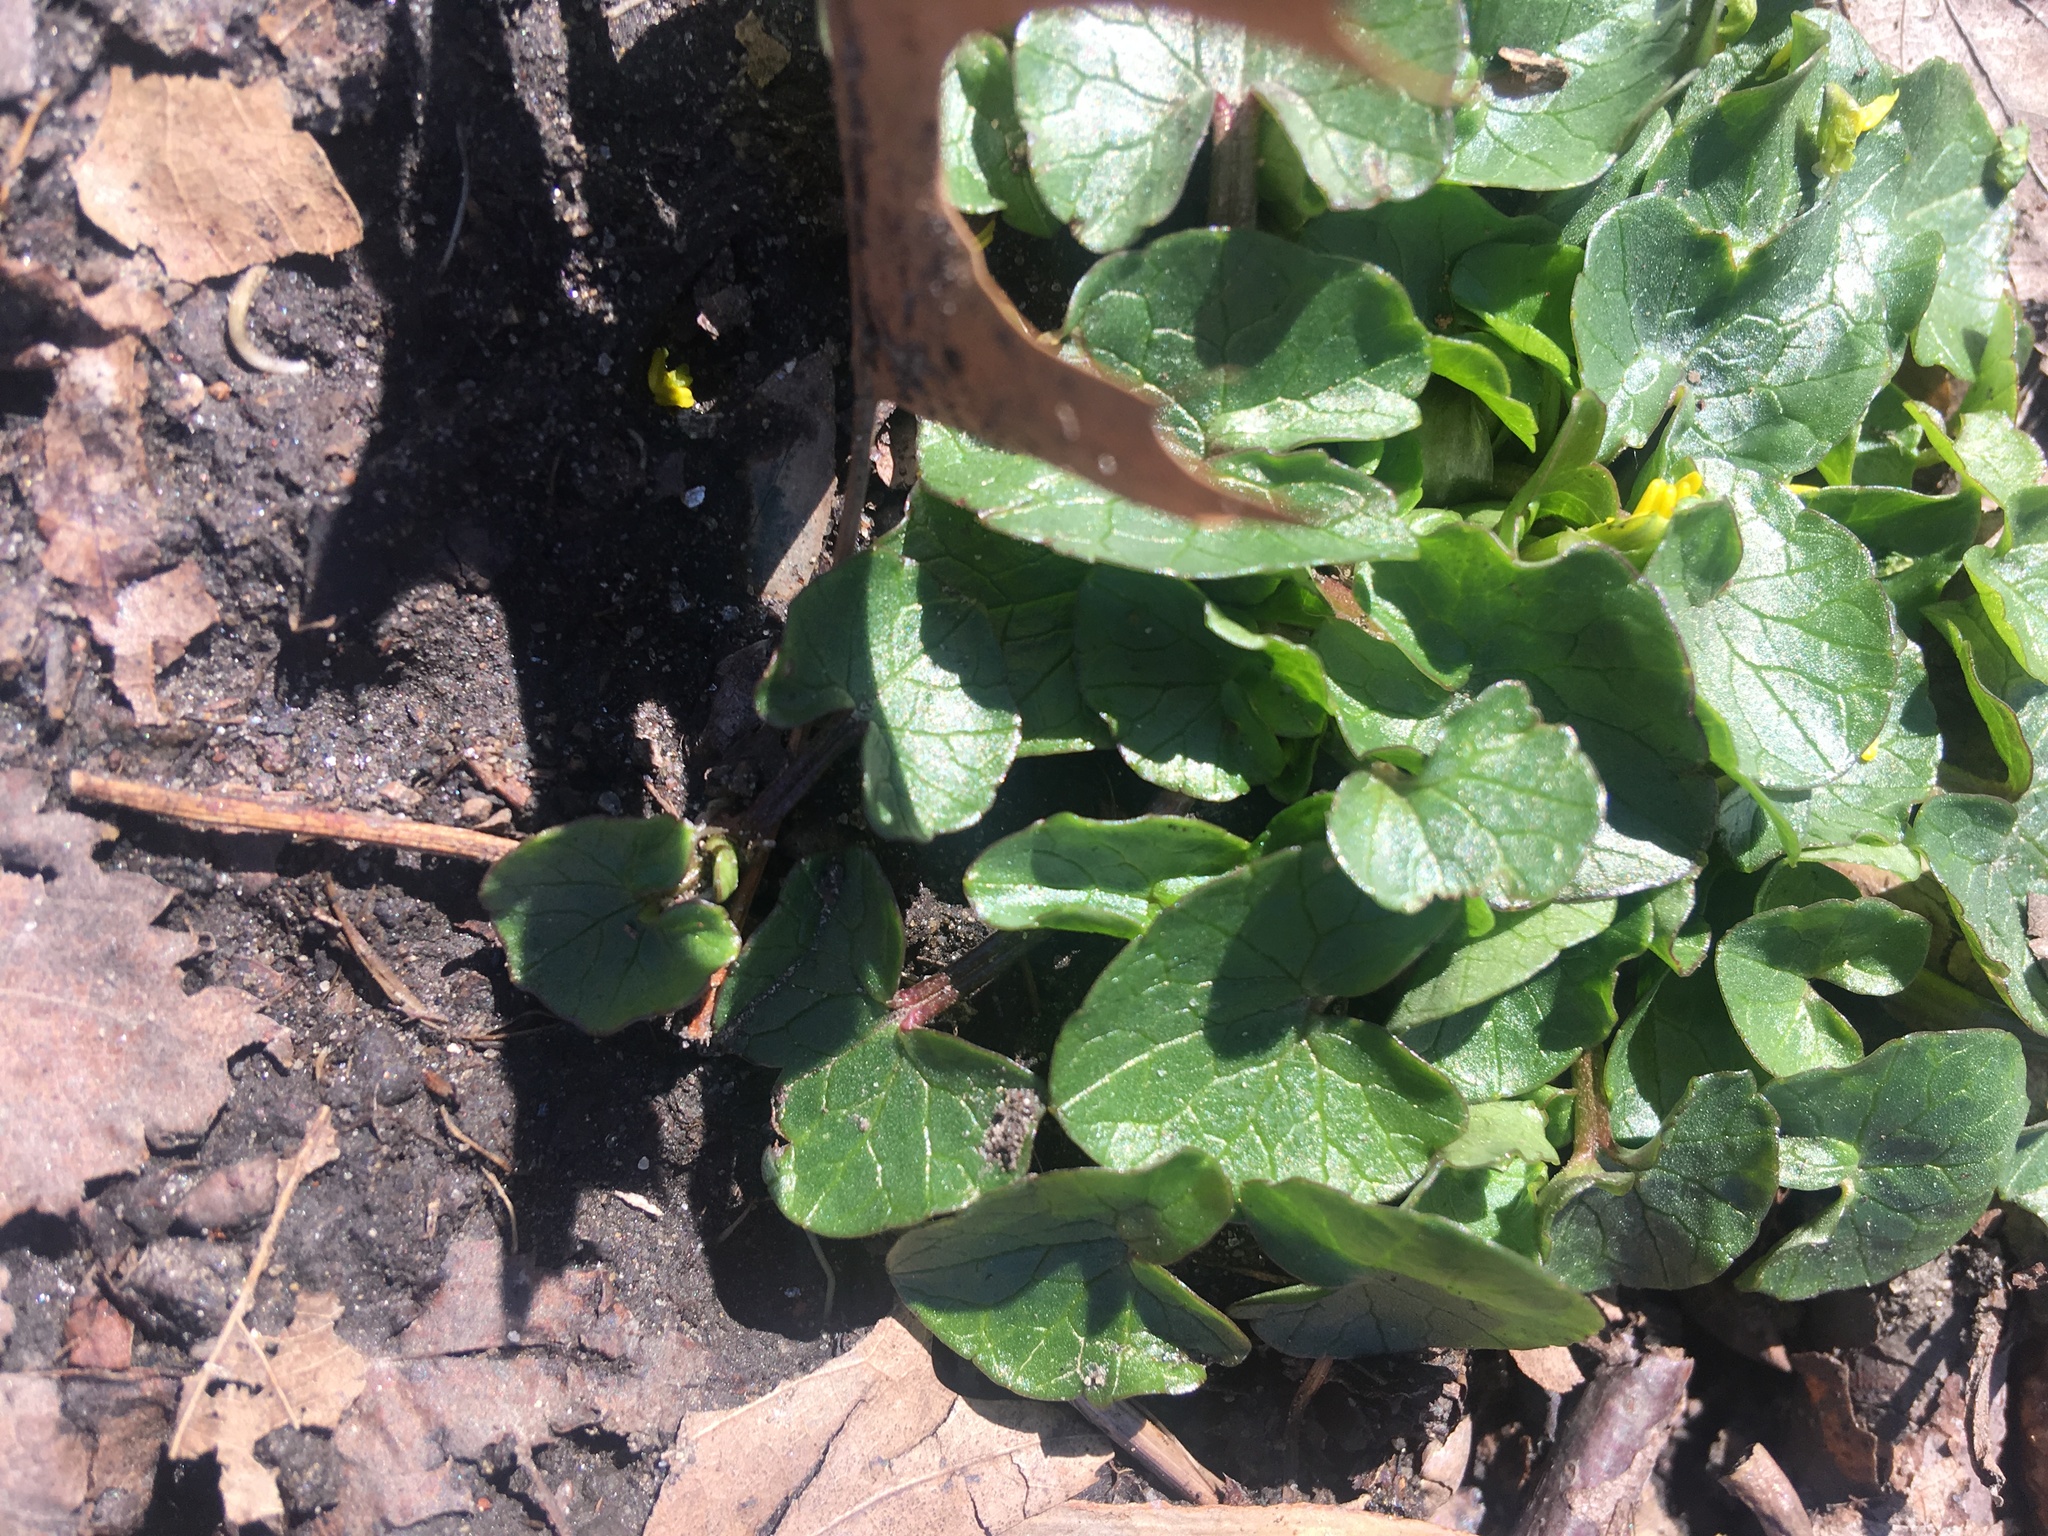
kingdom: Plantae
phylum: Tracheophyta
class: Magnoliopsida
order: Ranunculales
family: Ranunculaceae
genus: Ficaria
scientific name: Ficaria verna
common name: Lesser celandine
